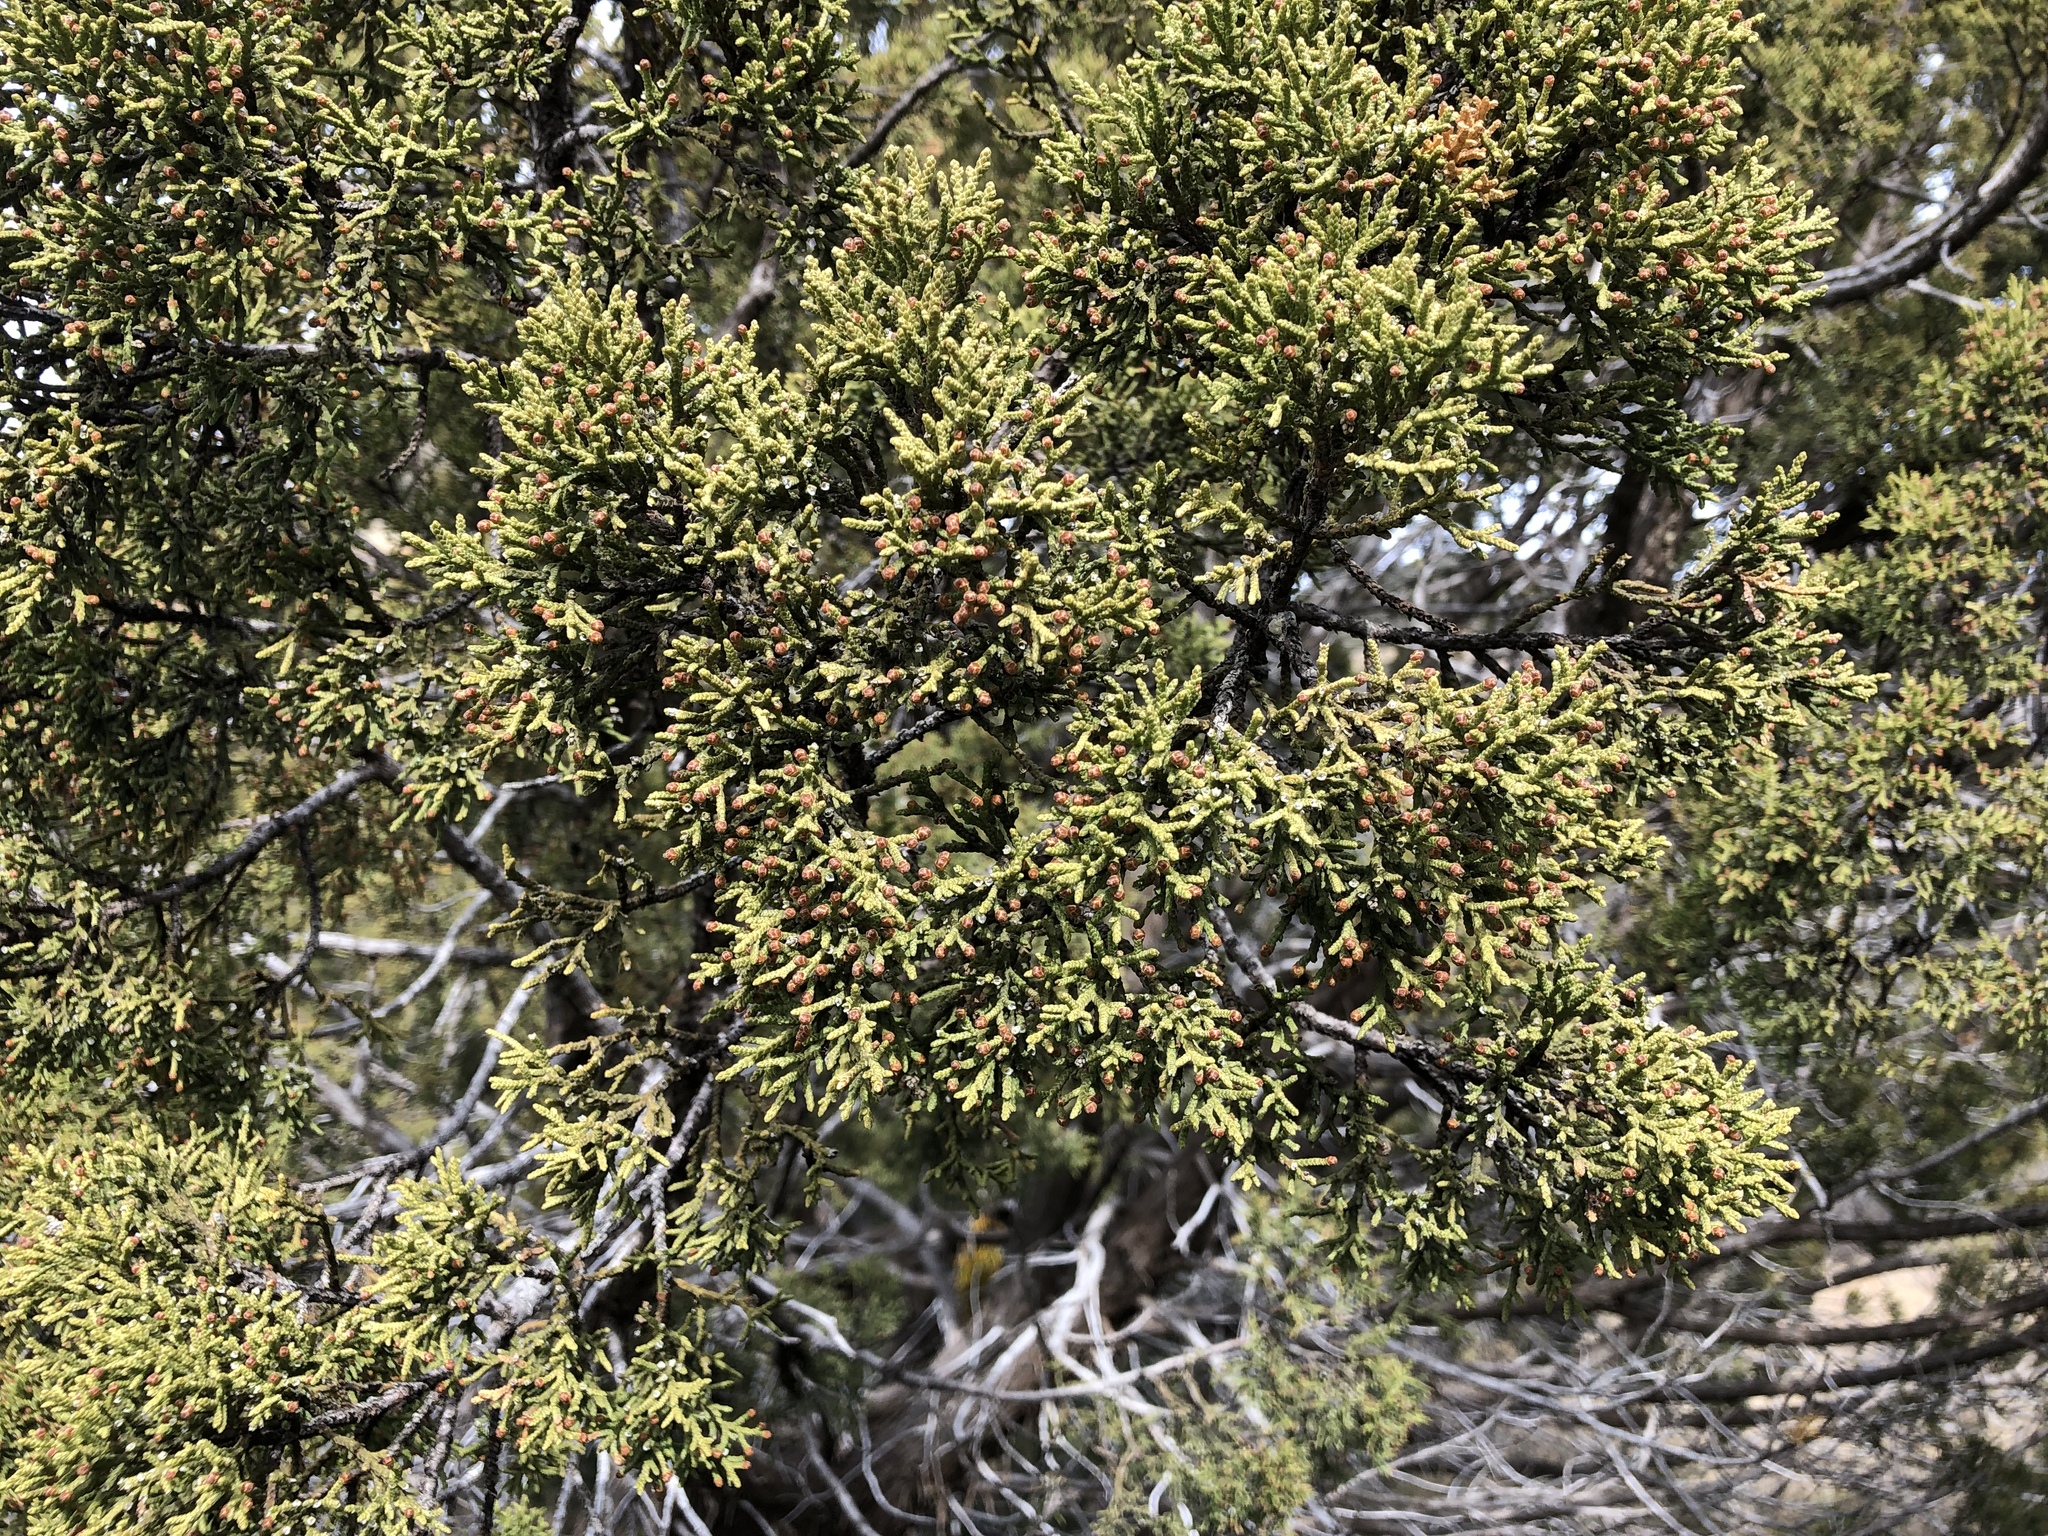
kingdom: Plantae
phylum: Tracheophyta
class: Pinopsida
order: Pinales
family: Cupressaceae
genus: Juniperus
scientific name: Juniperus monosperma
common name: One-seed juniper
